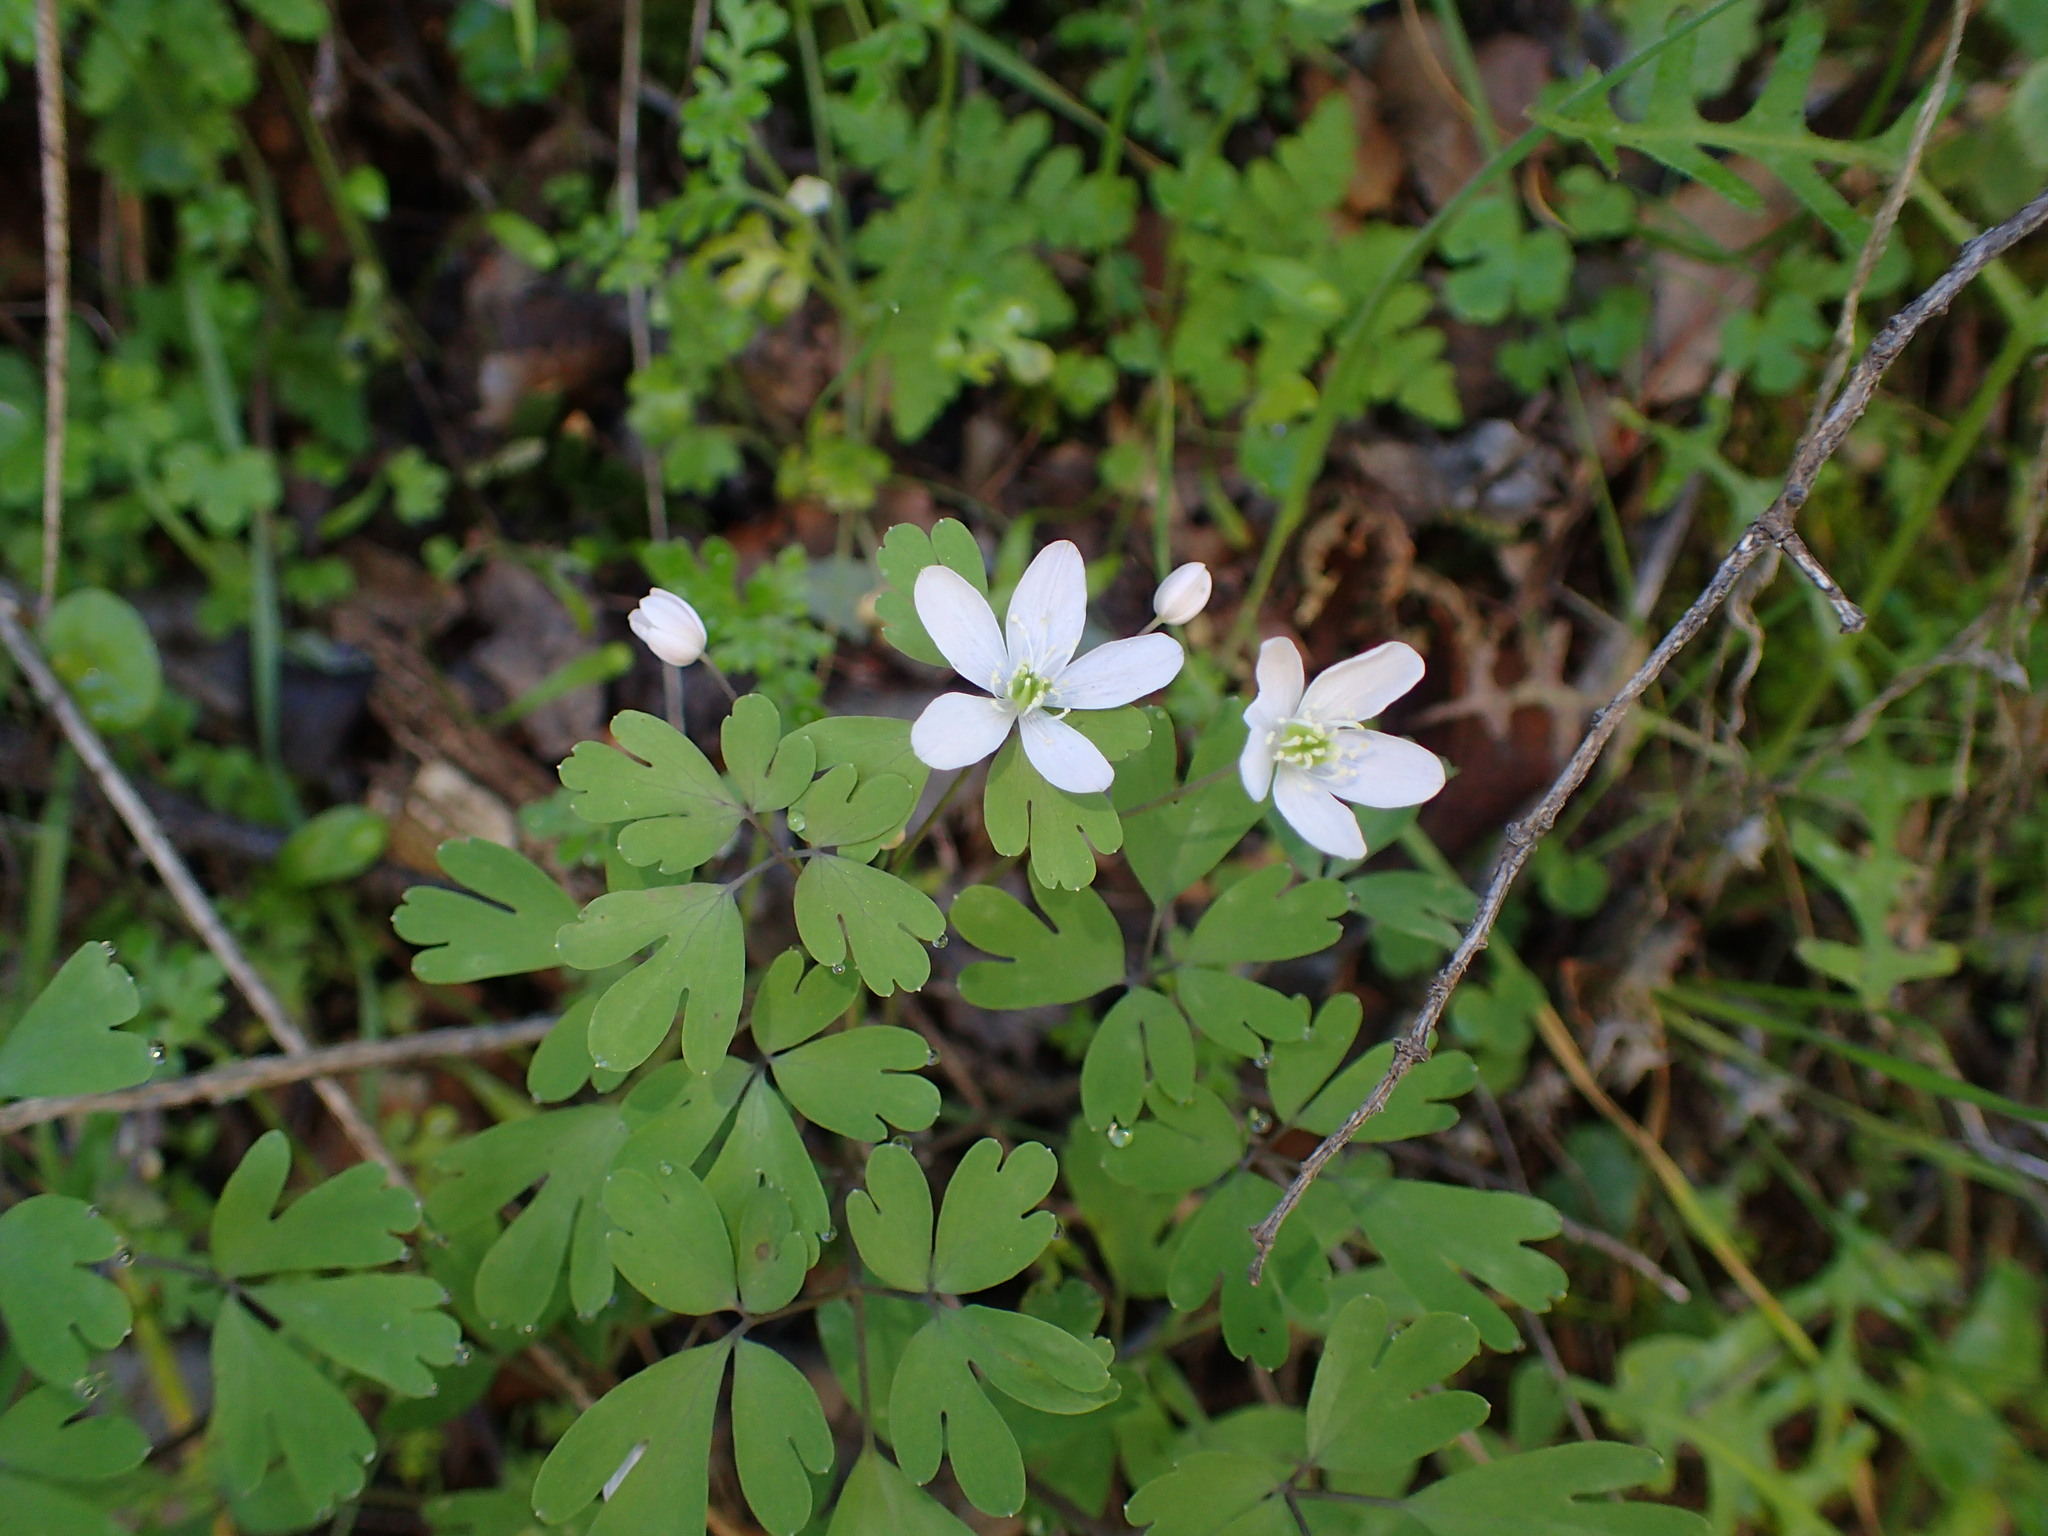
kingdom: Plantae
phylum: Tracheophyta
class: Magnoliopsida
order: Ranunculales
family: Ranunculaceae
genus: Enemion
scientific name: Enemion occidentale
